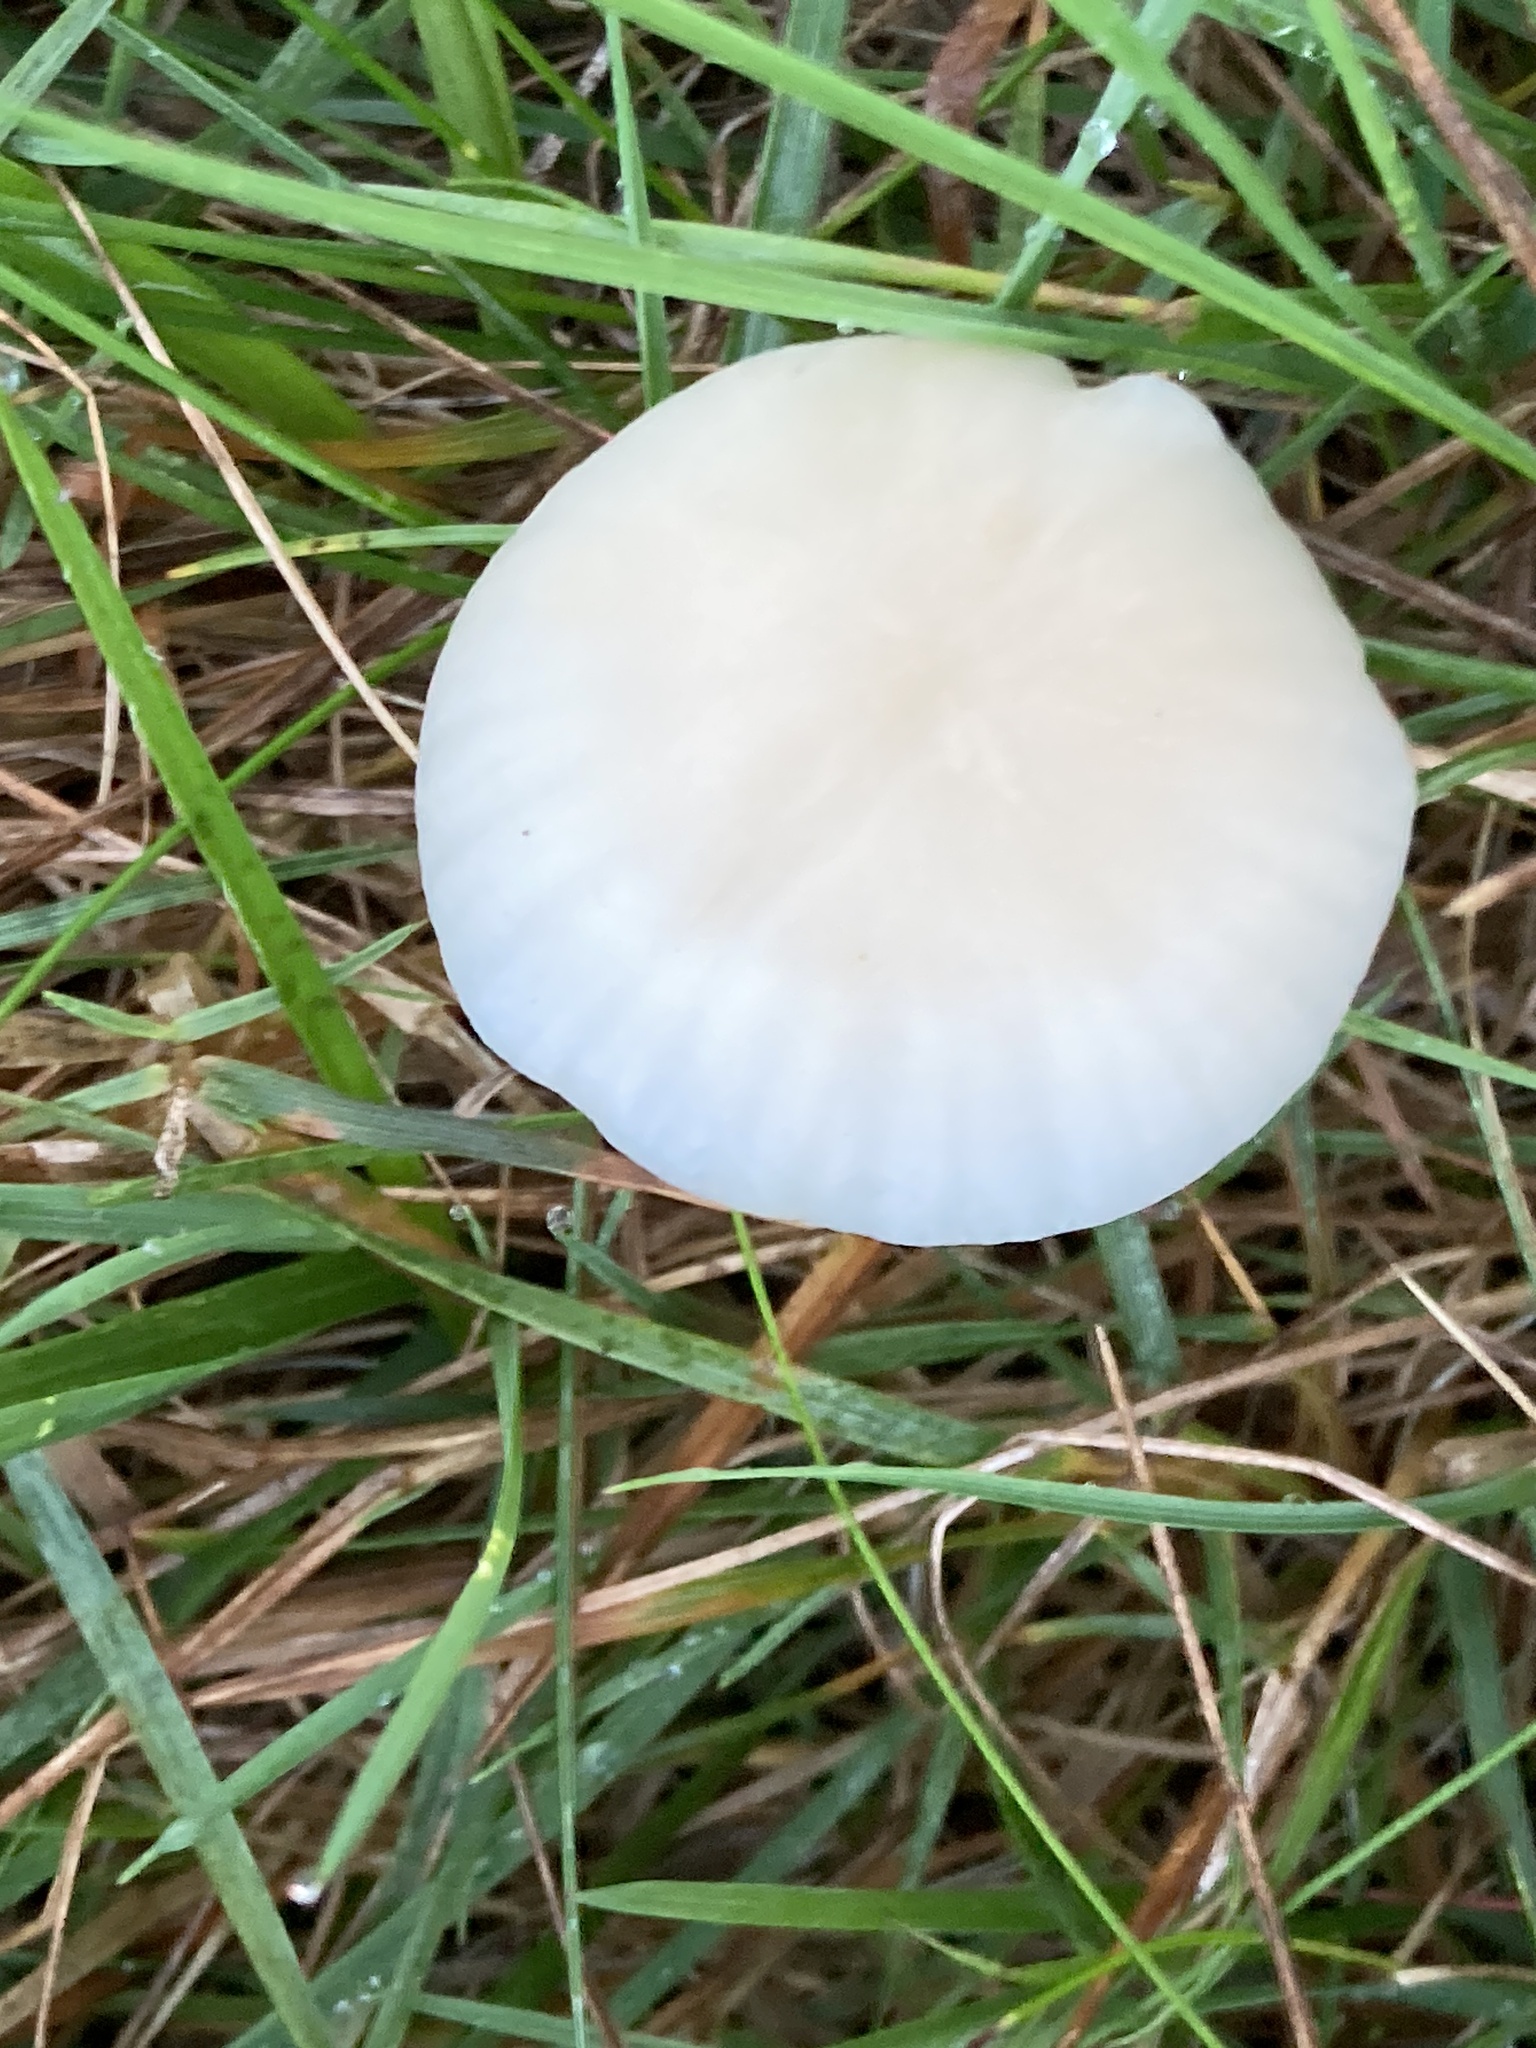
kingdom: Fungi
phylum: Basidiomycota
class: Agaricomycetes
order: Agaricales
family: Hygrophoraceae
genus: Cuphophyllus
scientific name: Cuphophyllus virgineus
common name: Snowy waxcap
